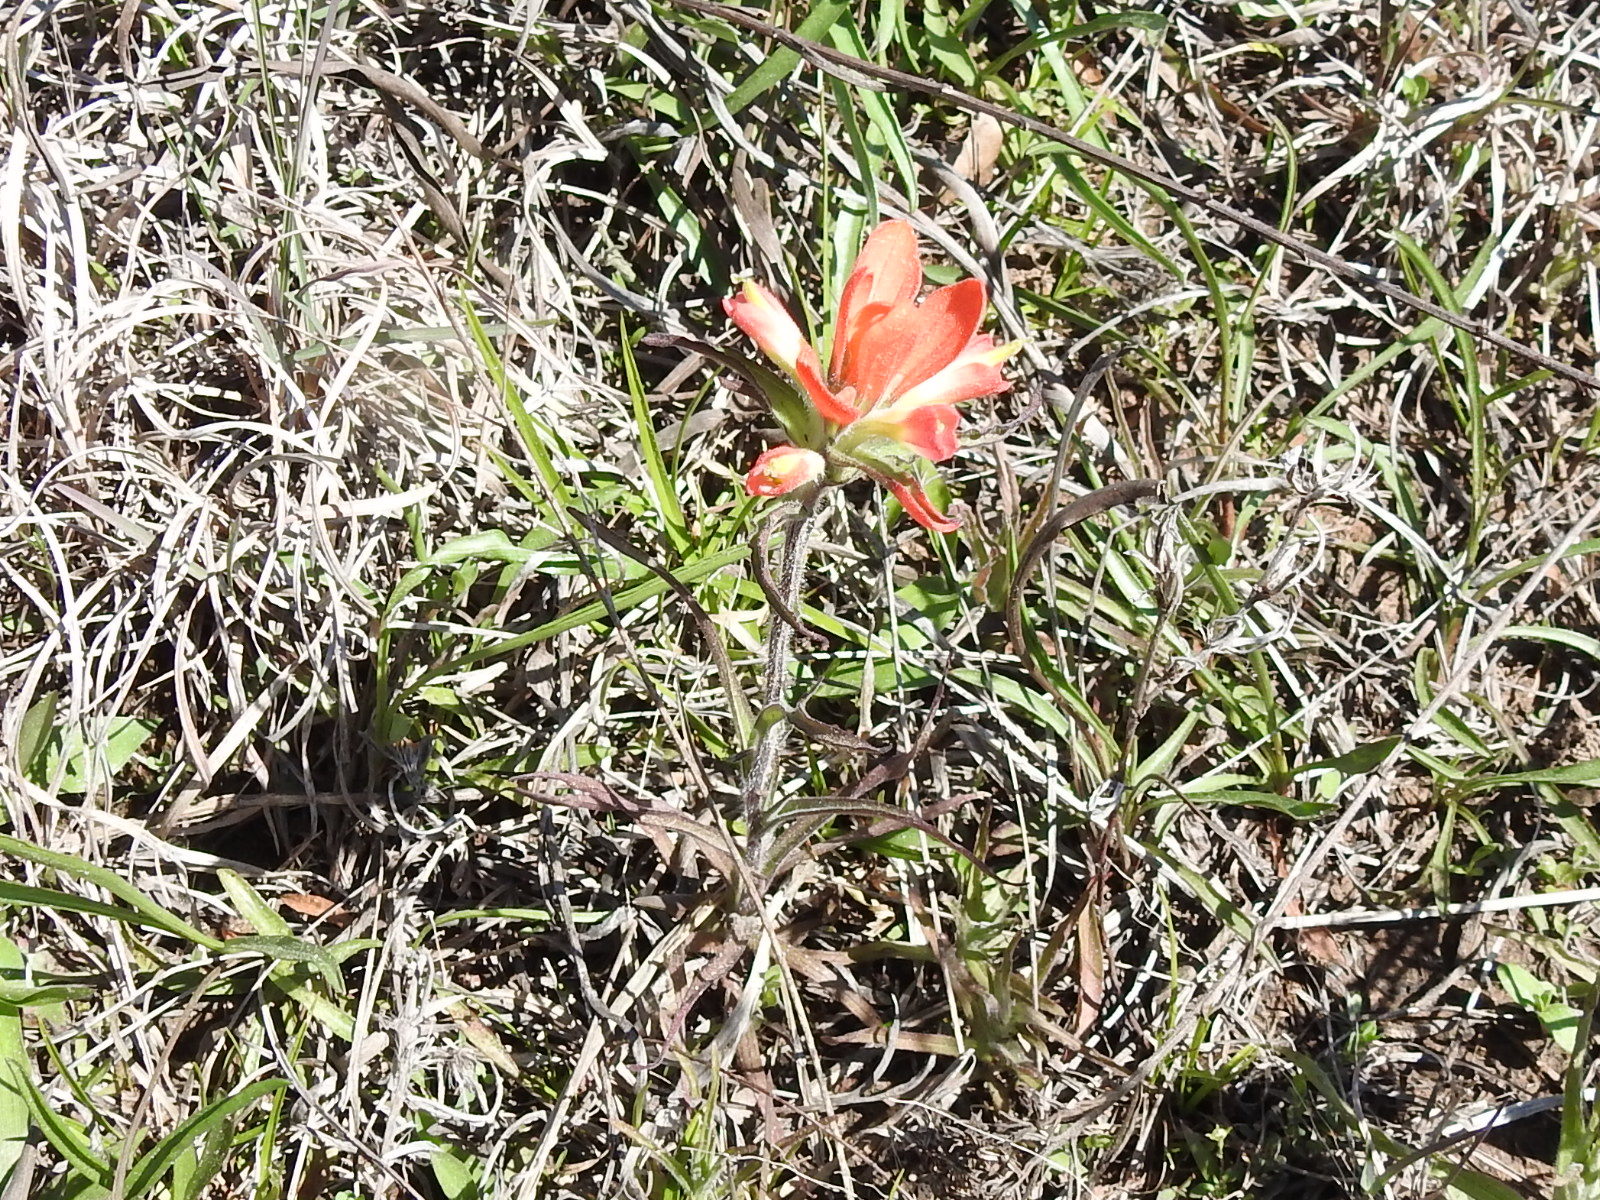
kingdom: Plantae
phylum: Tracheophyta
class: Magnoliopsida
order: Lamiales
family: Orobanchaceae
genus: Castilleja
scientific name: Castilleja indivisa
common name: Texas paintbrush
